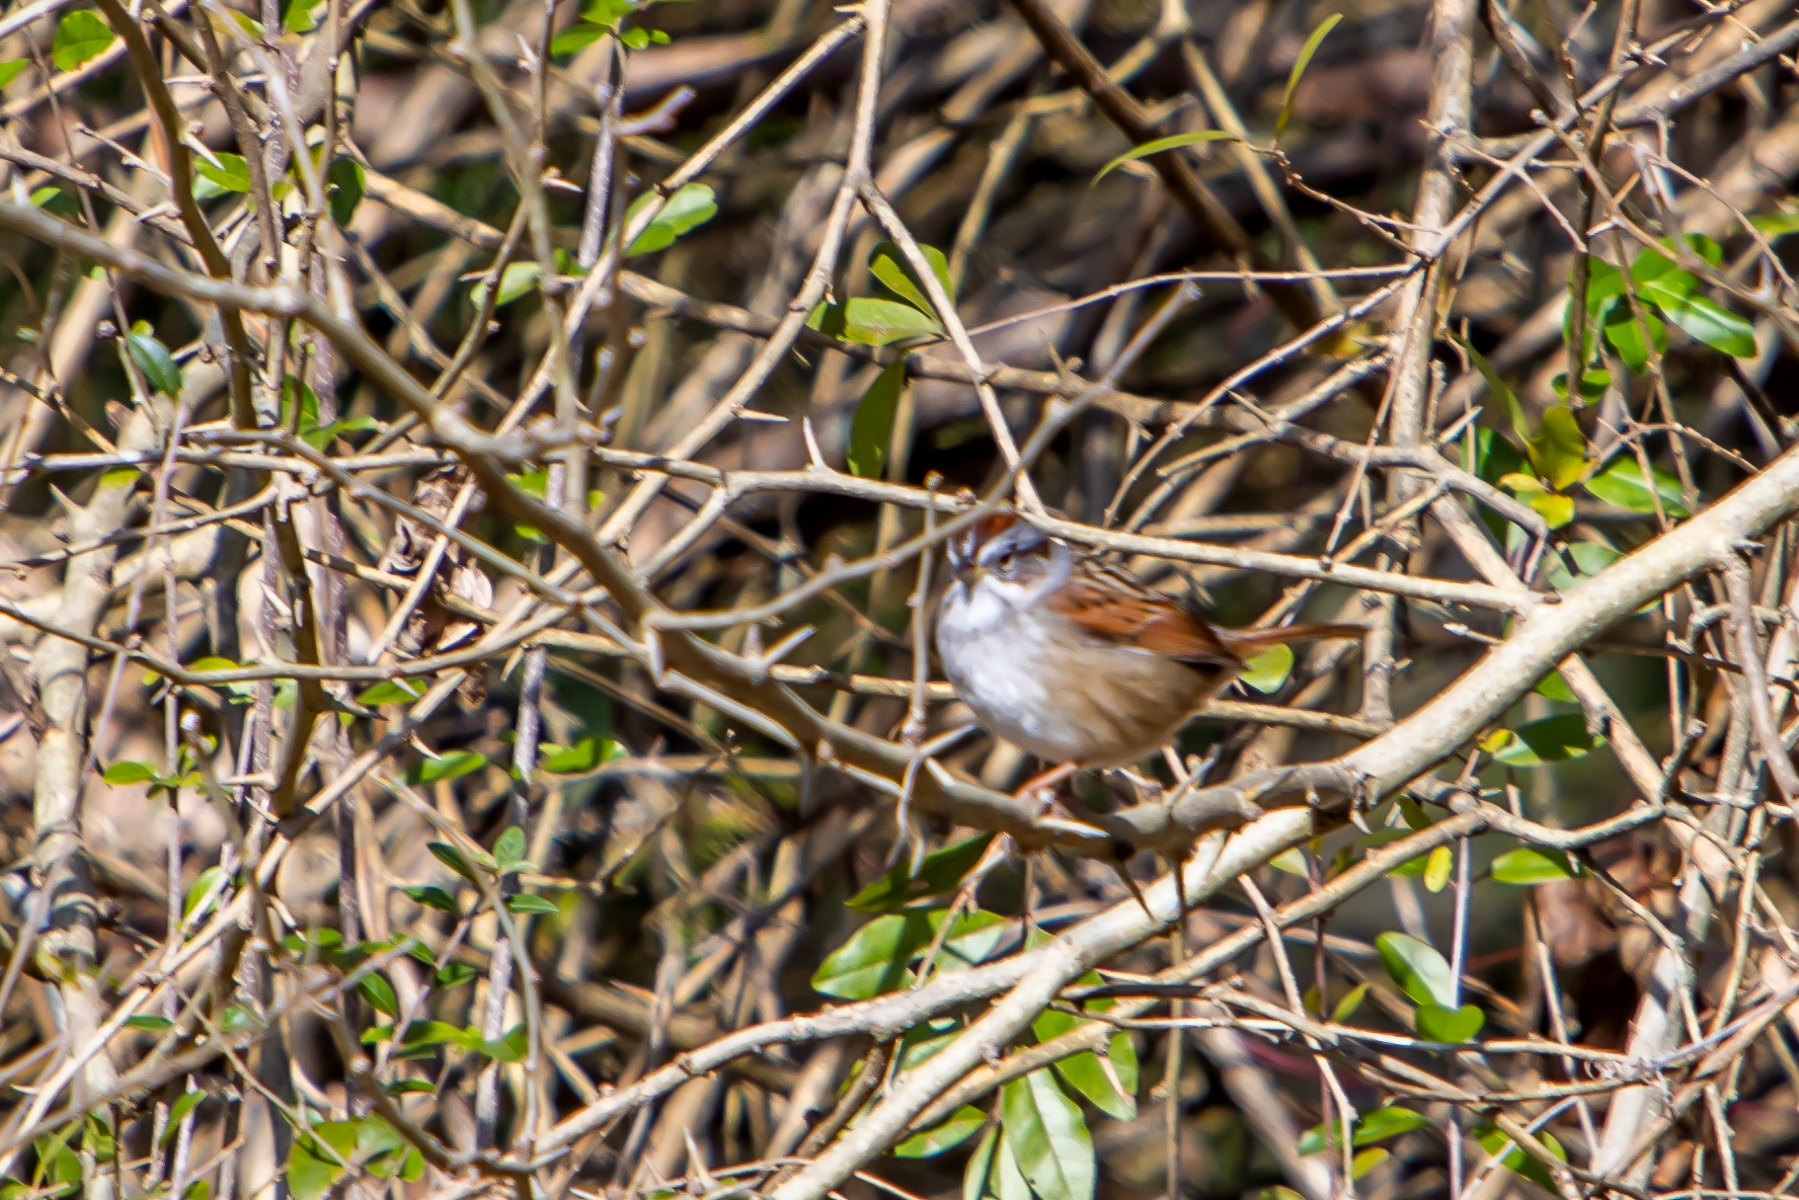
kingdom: Animalia
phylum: Chordata
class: Aves
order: Passeriformes
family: Passerellidae
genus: Melospiza
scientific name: Melospiza georgiana
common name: Swamp sparrow
